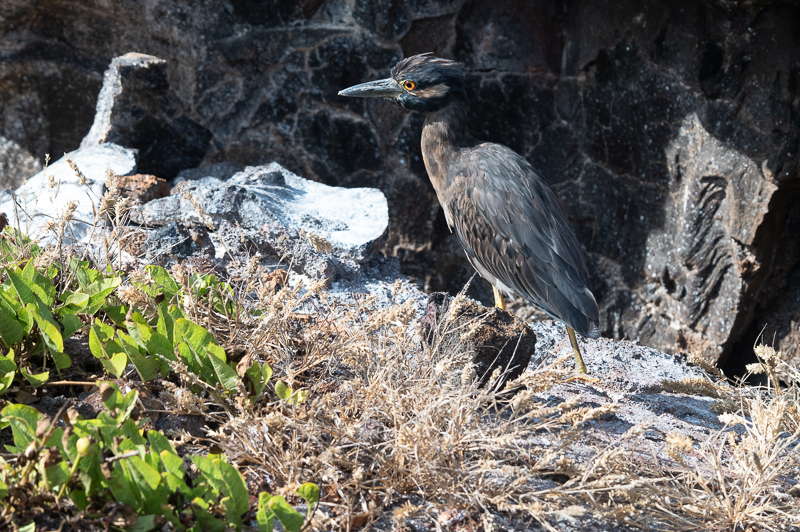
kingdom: Animalia
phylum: Chordata
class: Aves
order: Pelecaniformes
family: Ardeidae
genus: Nyctanassa
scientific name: Nyctanassa violacea
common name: Yellow-crowned night heron
